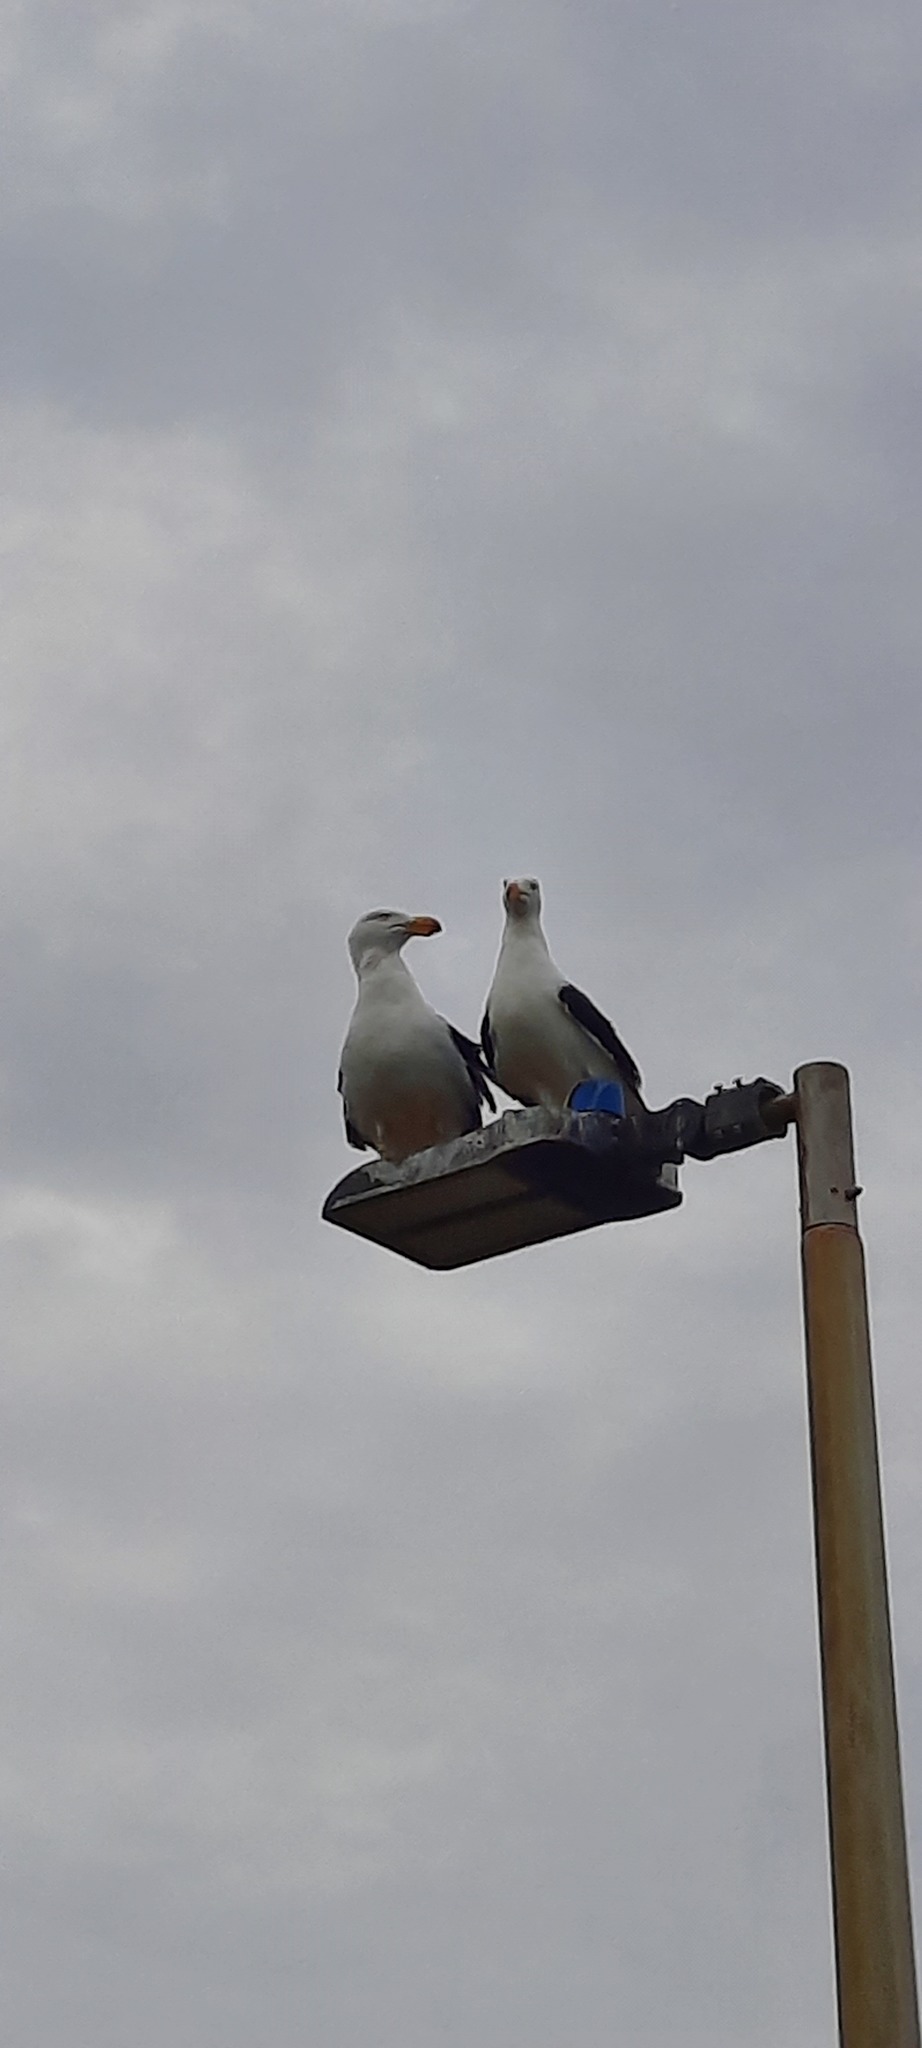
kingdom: Animalia
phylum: Chordata
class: Aves
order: Charadriiformes
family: Laridae
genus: Larus
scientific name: Larus pacificus
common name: Pacific gull
